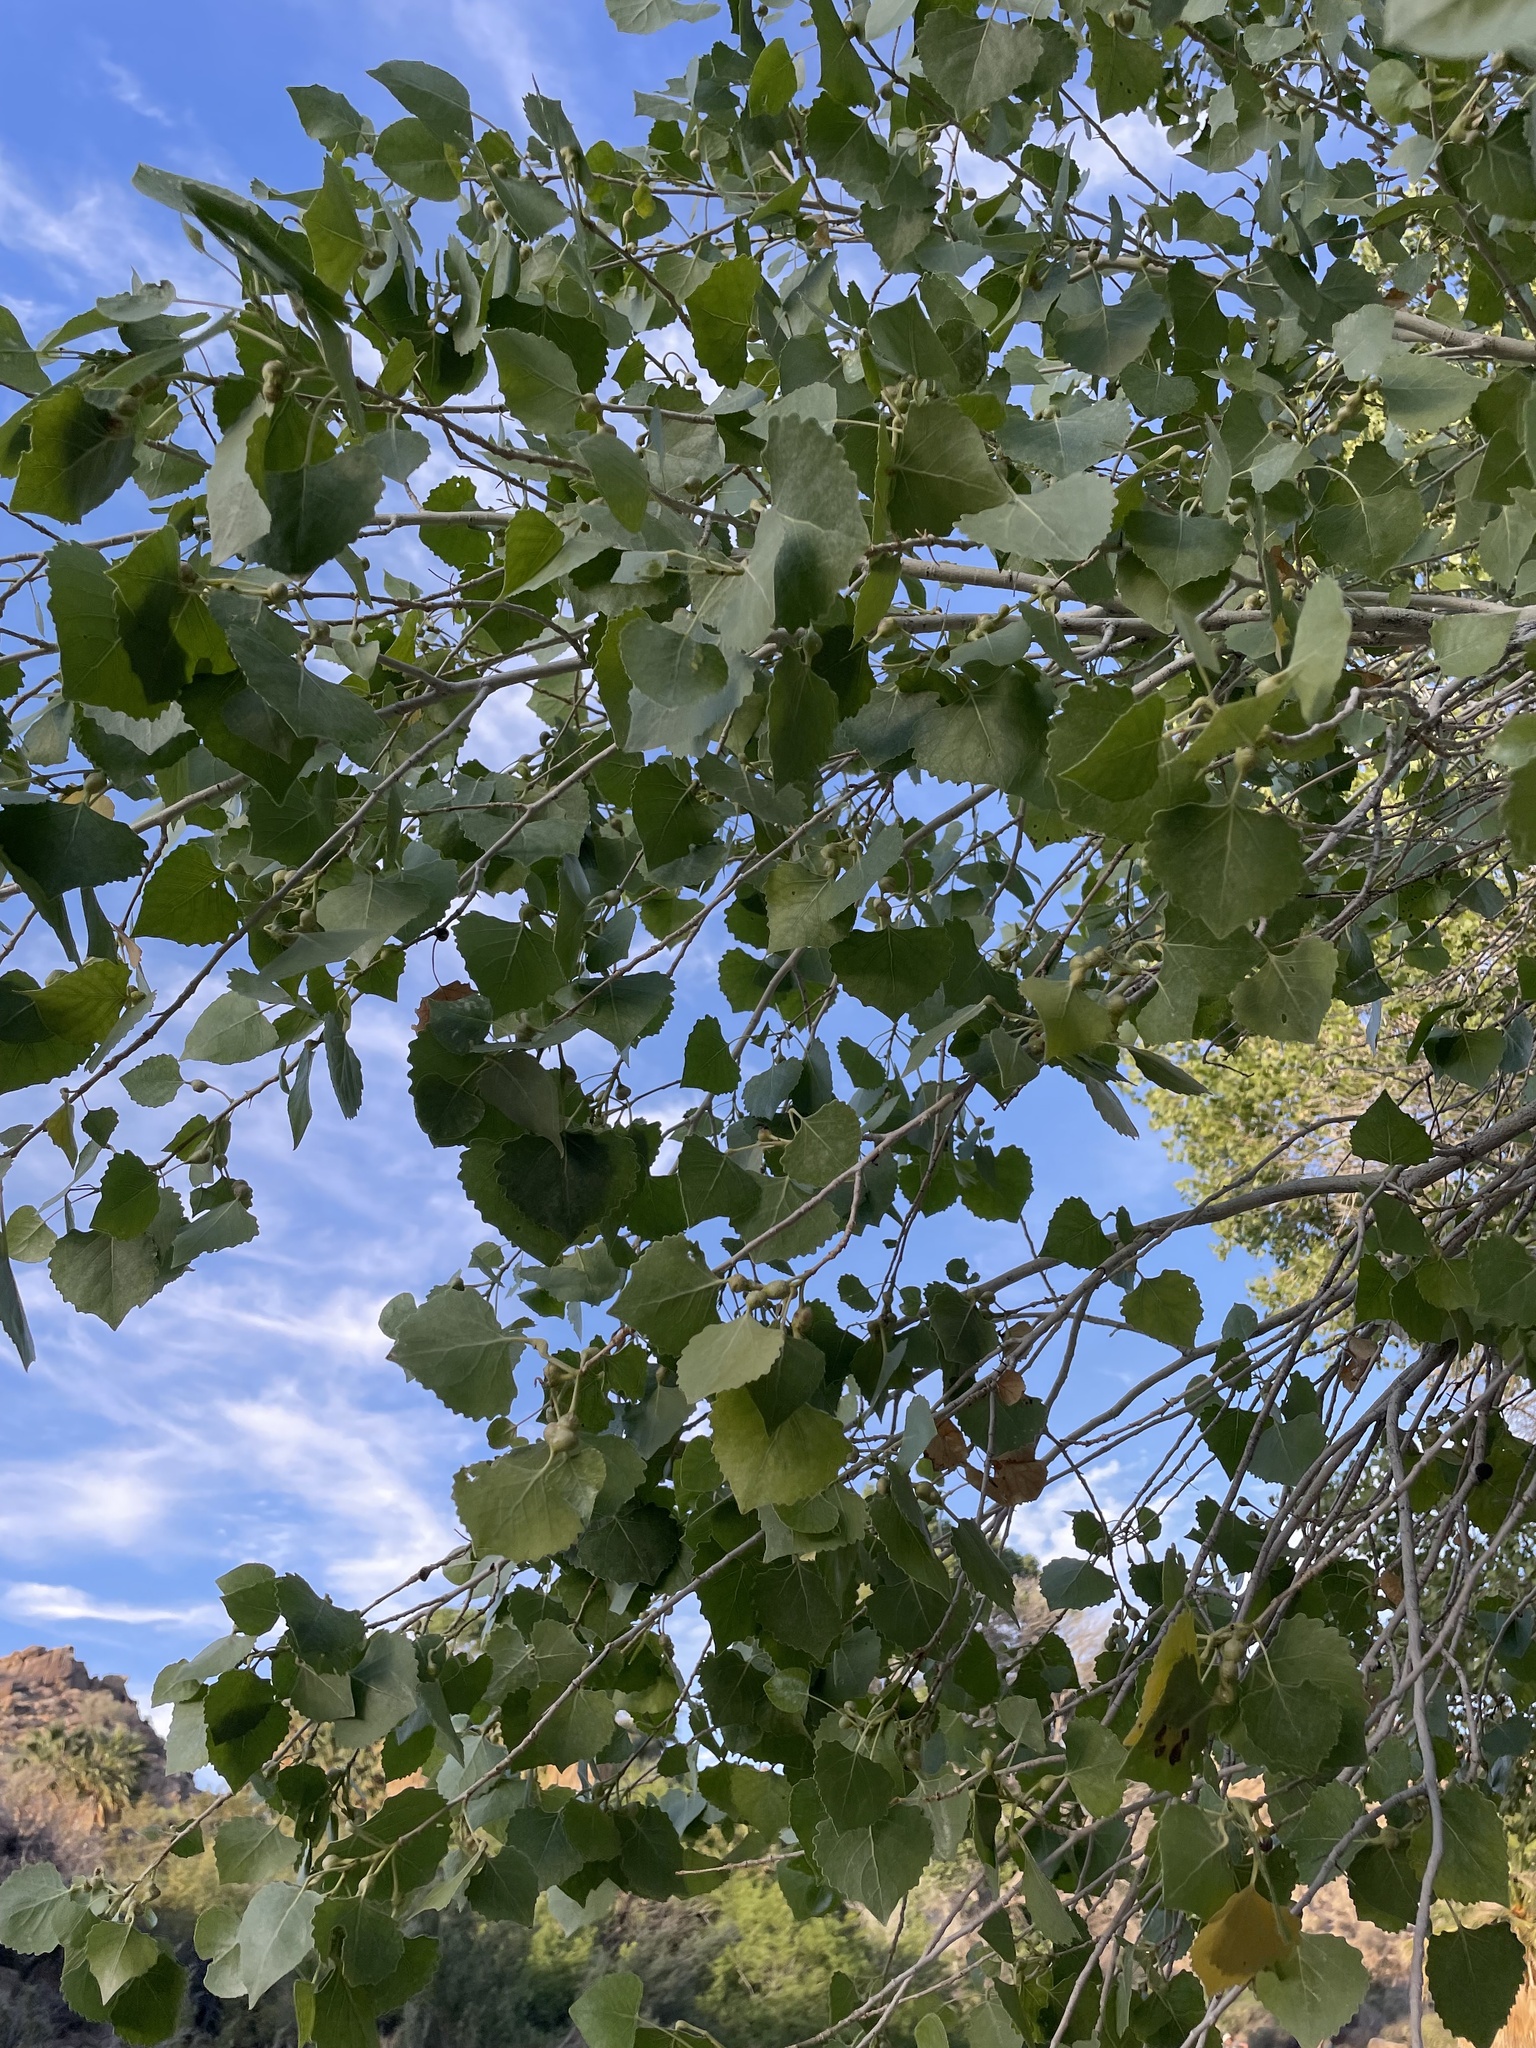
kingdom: Plantae
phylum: Tracheophyta
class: Magnoliopsida
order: Malpighiales
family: Salicaceae
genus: Populus
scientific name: Populus fremontii
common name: Fremont's cottonwood
